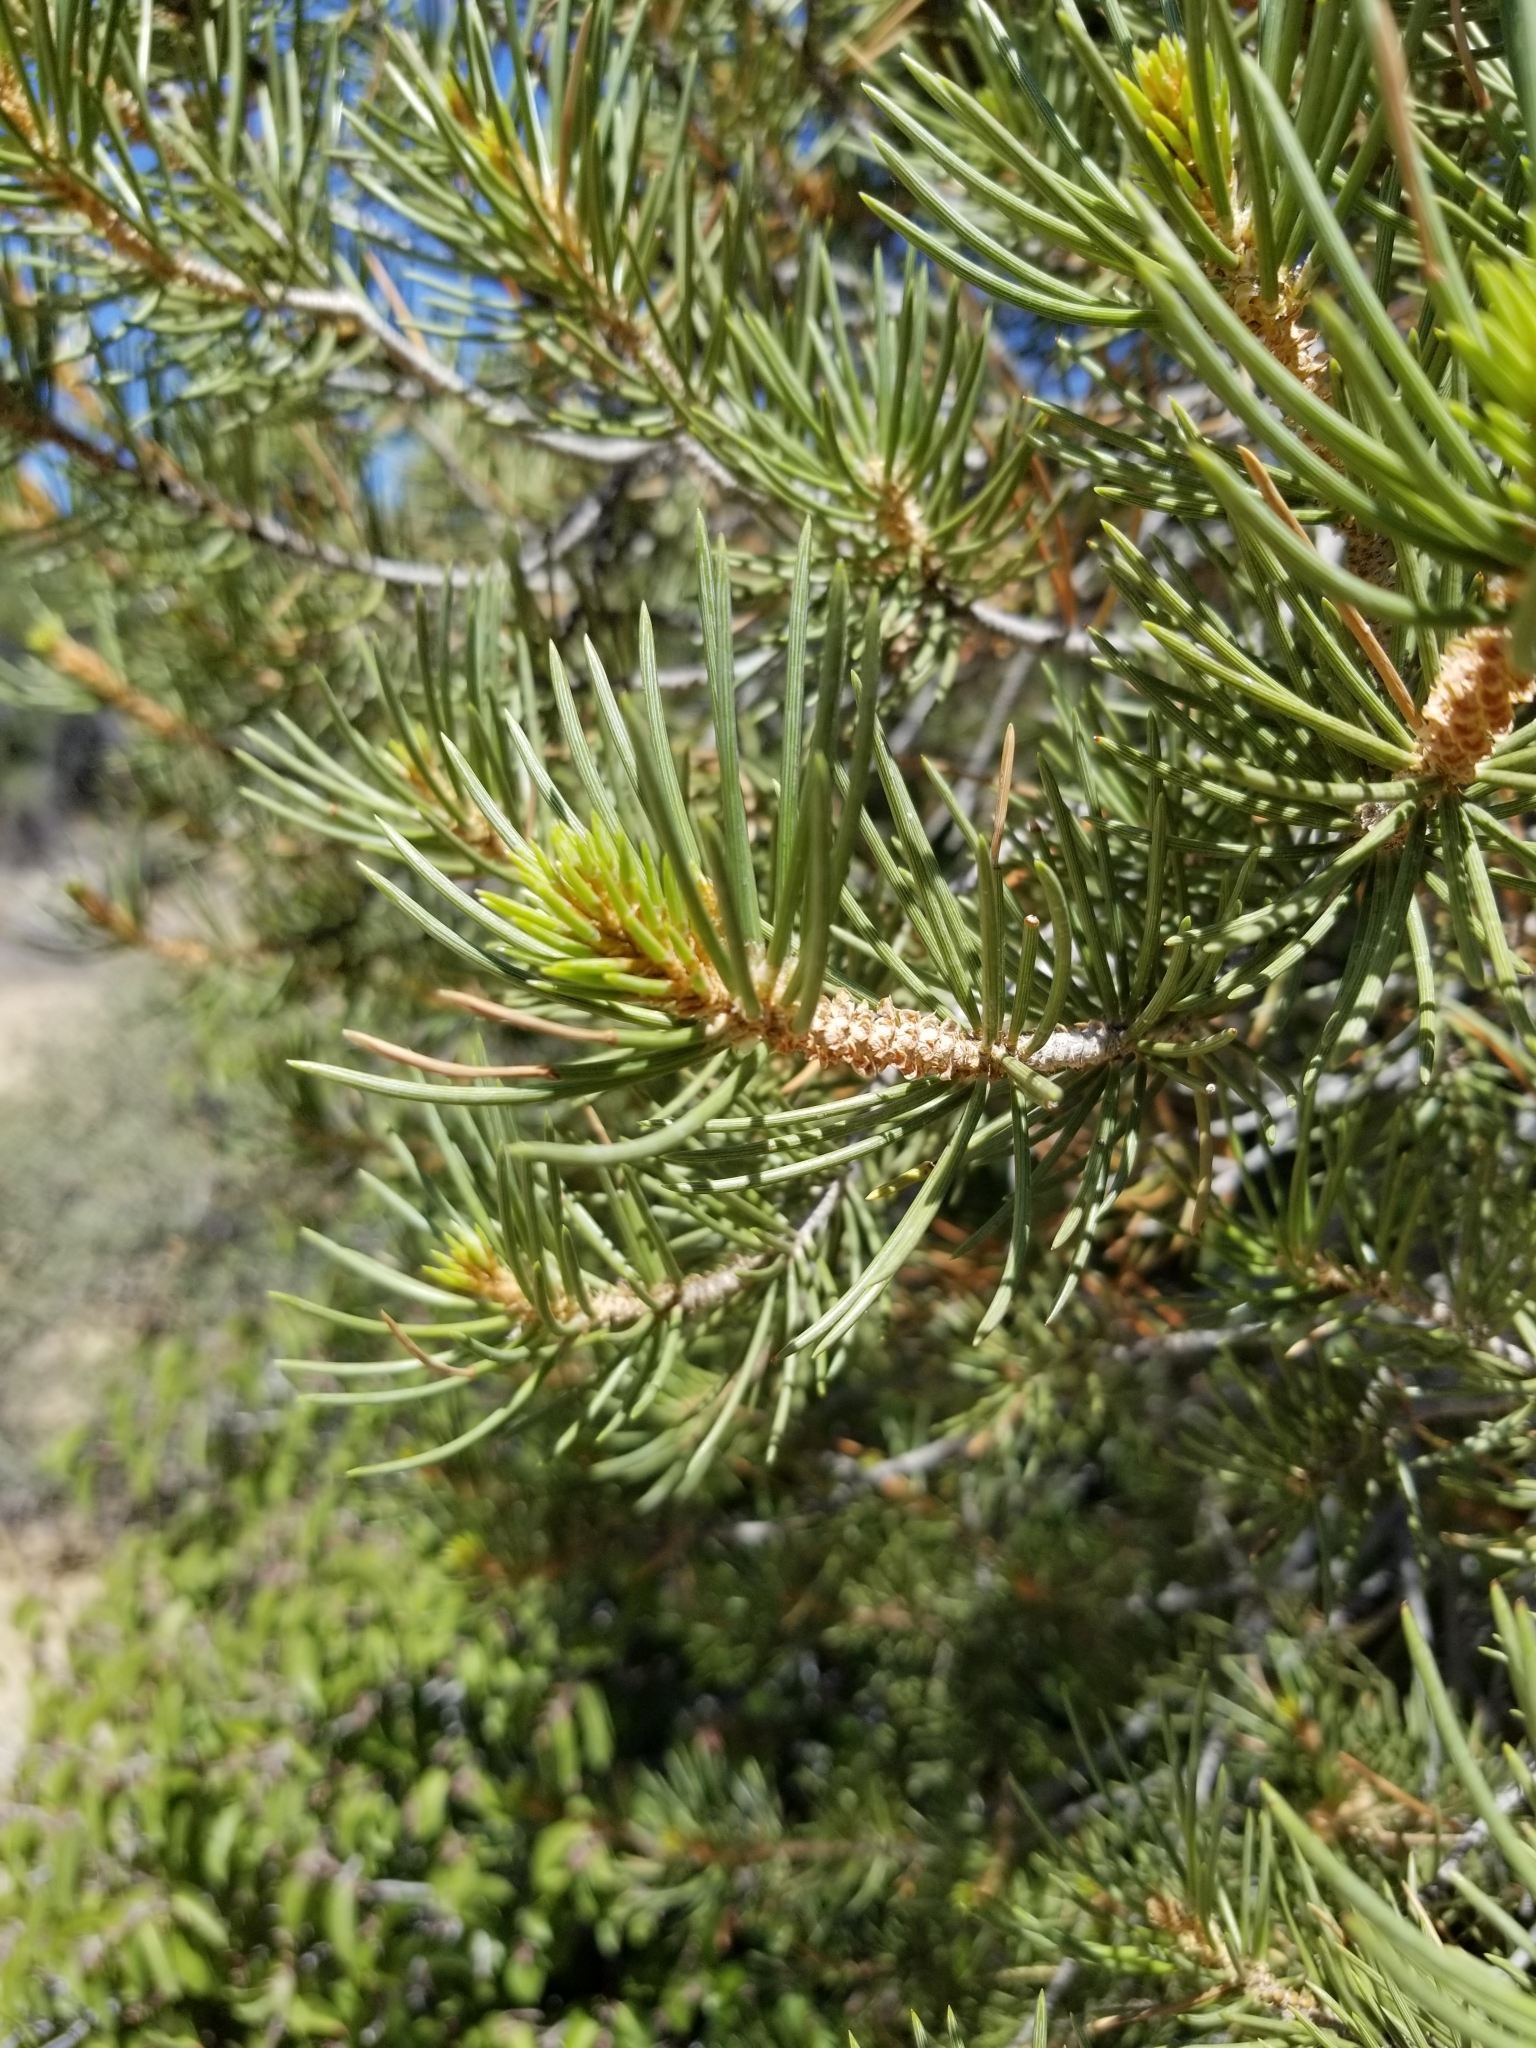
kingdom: Plantae
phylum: Tracheophyta
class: Pinopsida
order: Pinales
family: Pinaceae
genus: Pinus
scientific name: Pinus monophylla
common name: One-leaved nut pine
